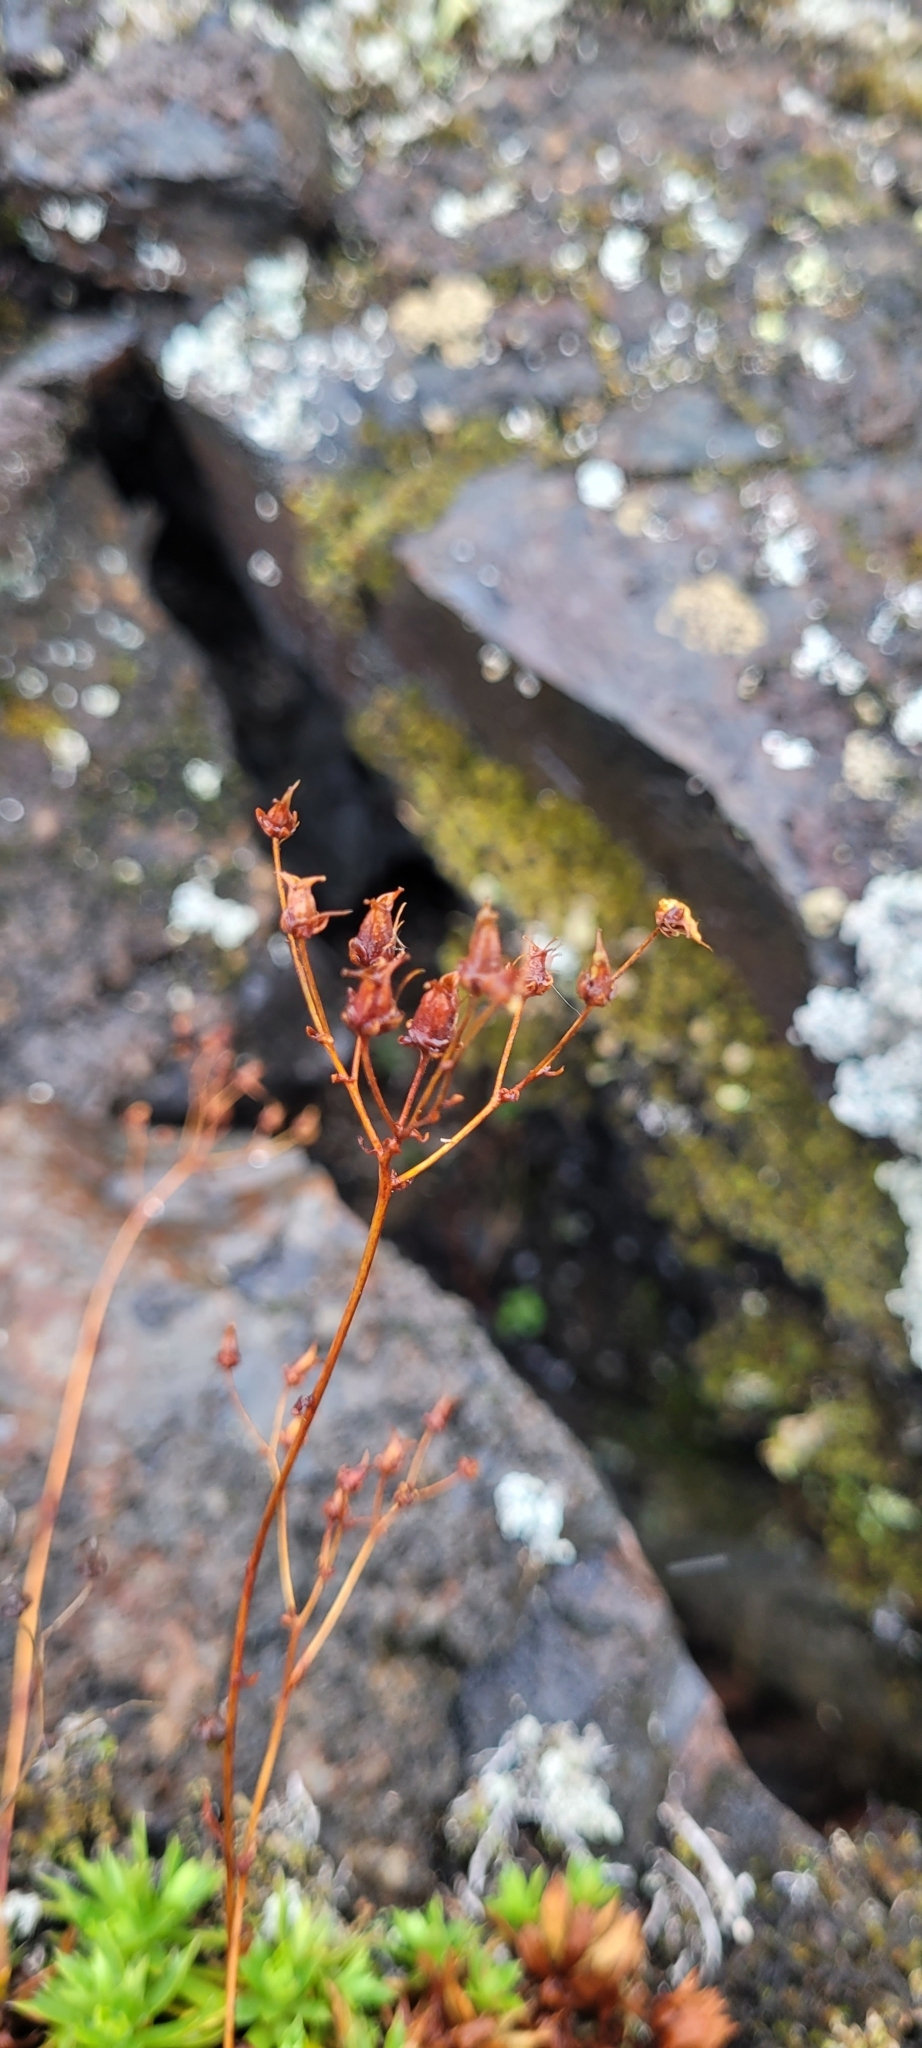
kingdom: Plantae
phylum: Tracheophyta
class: Magnoliopsida
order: Saxifragales
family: Saxifragaceae
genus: Saxifraga
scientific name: Saxifraga tricuspidata
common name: Prickly saxifrage
